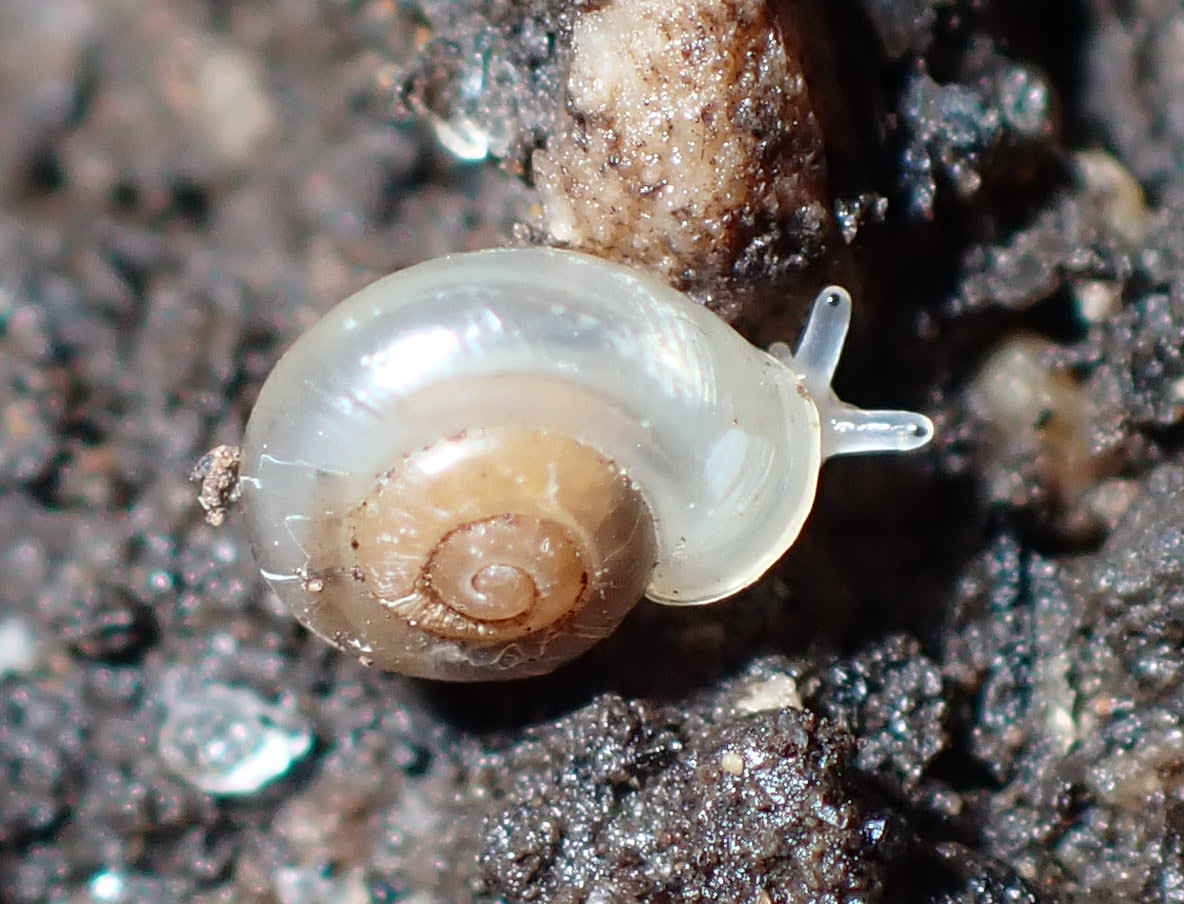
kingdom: Animalia
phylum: Mollusca
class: Gastropoda
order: Stylommatophora
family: Valloniidae
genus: Vallonia
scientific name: Vallonia excentrica
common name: Eccentric grass snail
